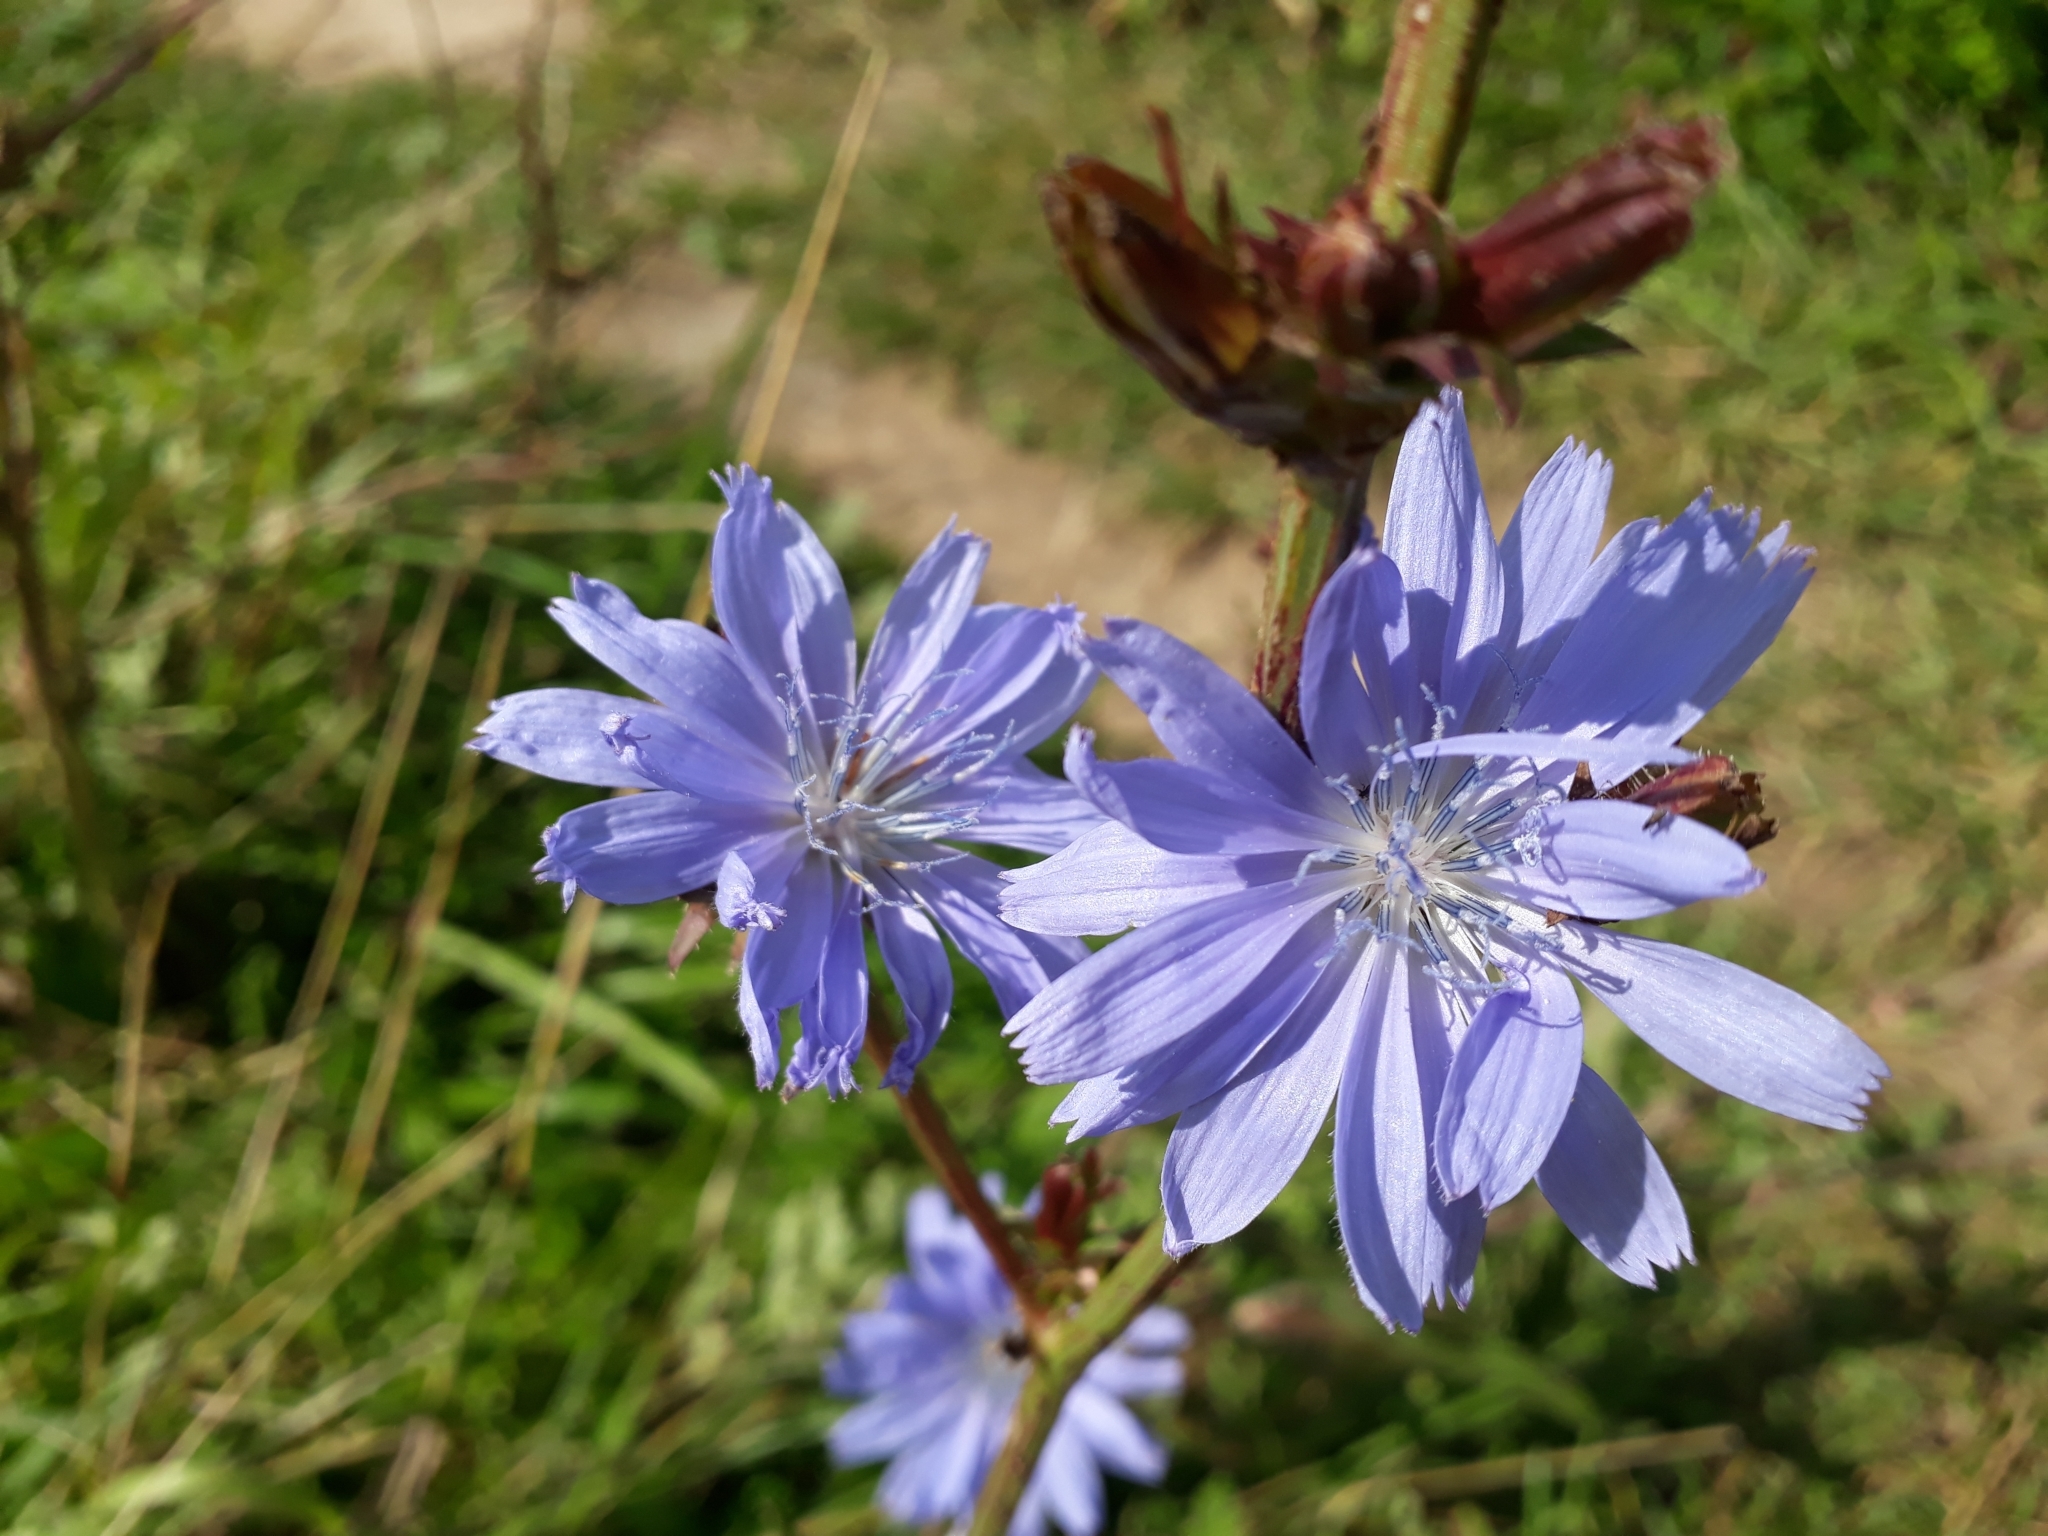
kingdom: Plantae
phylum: Tracheophyta
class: Magnoliopsida
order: Asterales
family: Asteraceae
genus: Cichorium
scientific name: Cichorium intybus
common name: Chicory
